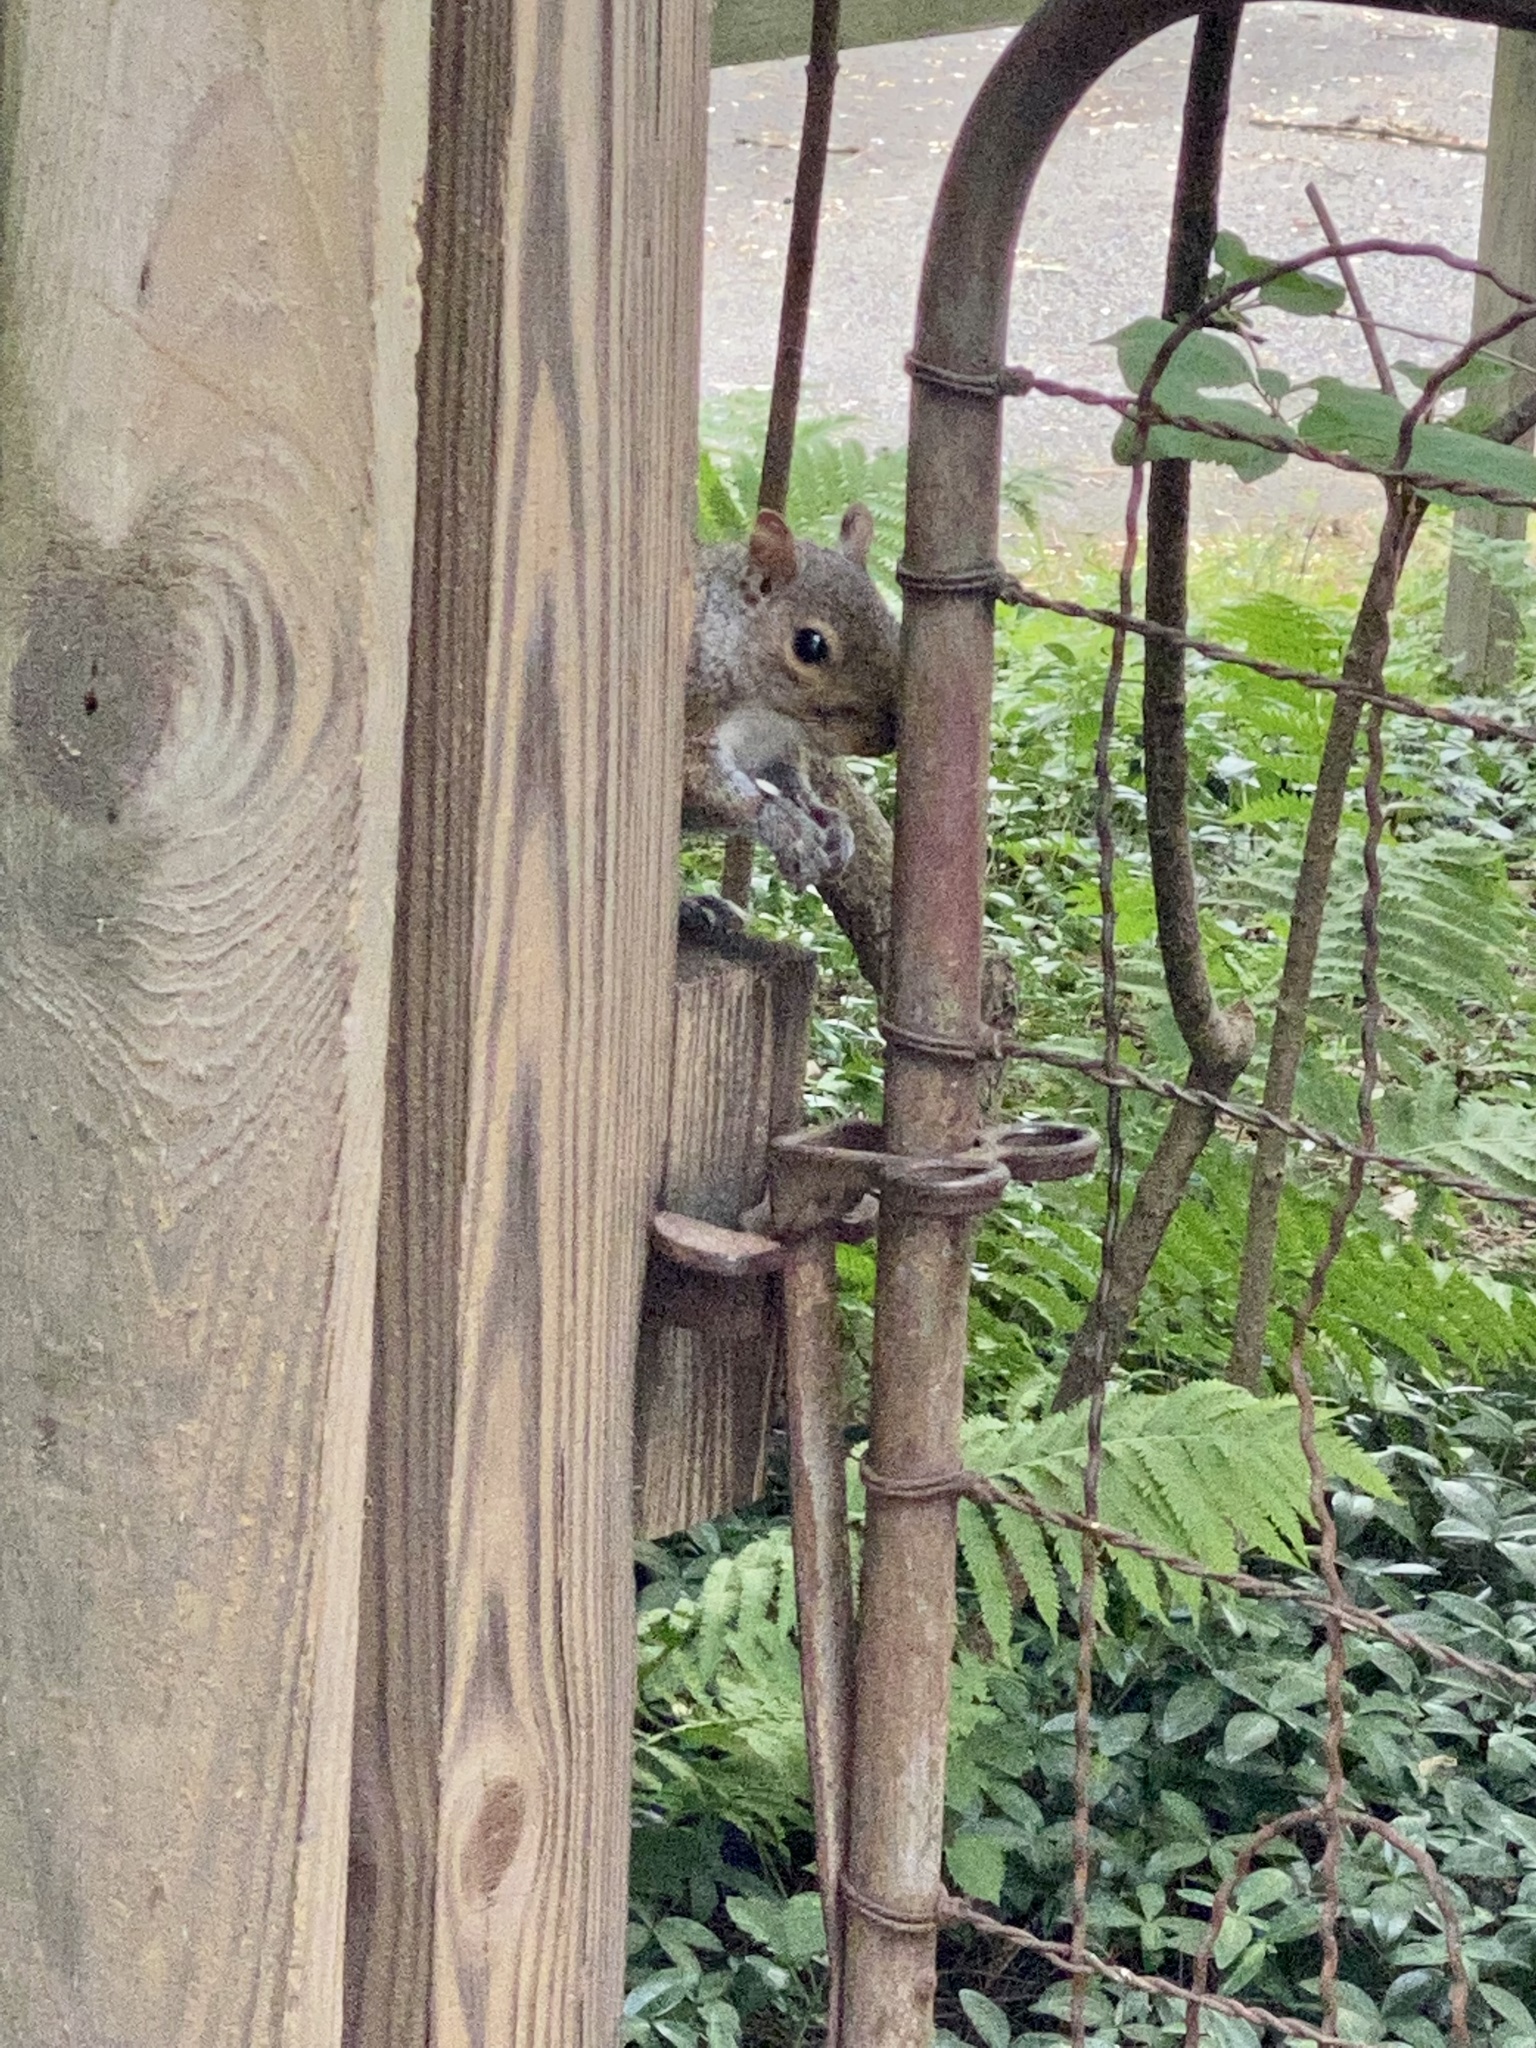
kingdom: Animalia
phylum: Chordata
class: Mammalia
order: Rodentia
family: Sciuridae
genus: Sciurus
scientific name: Sciurus carolinensis
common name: Eastern gray squirrel
